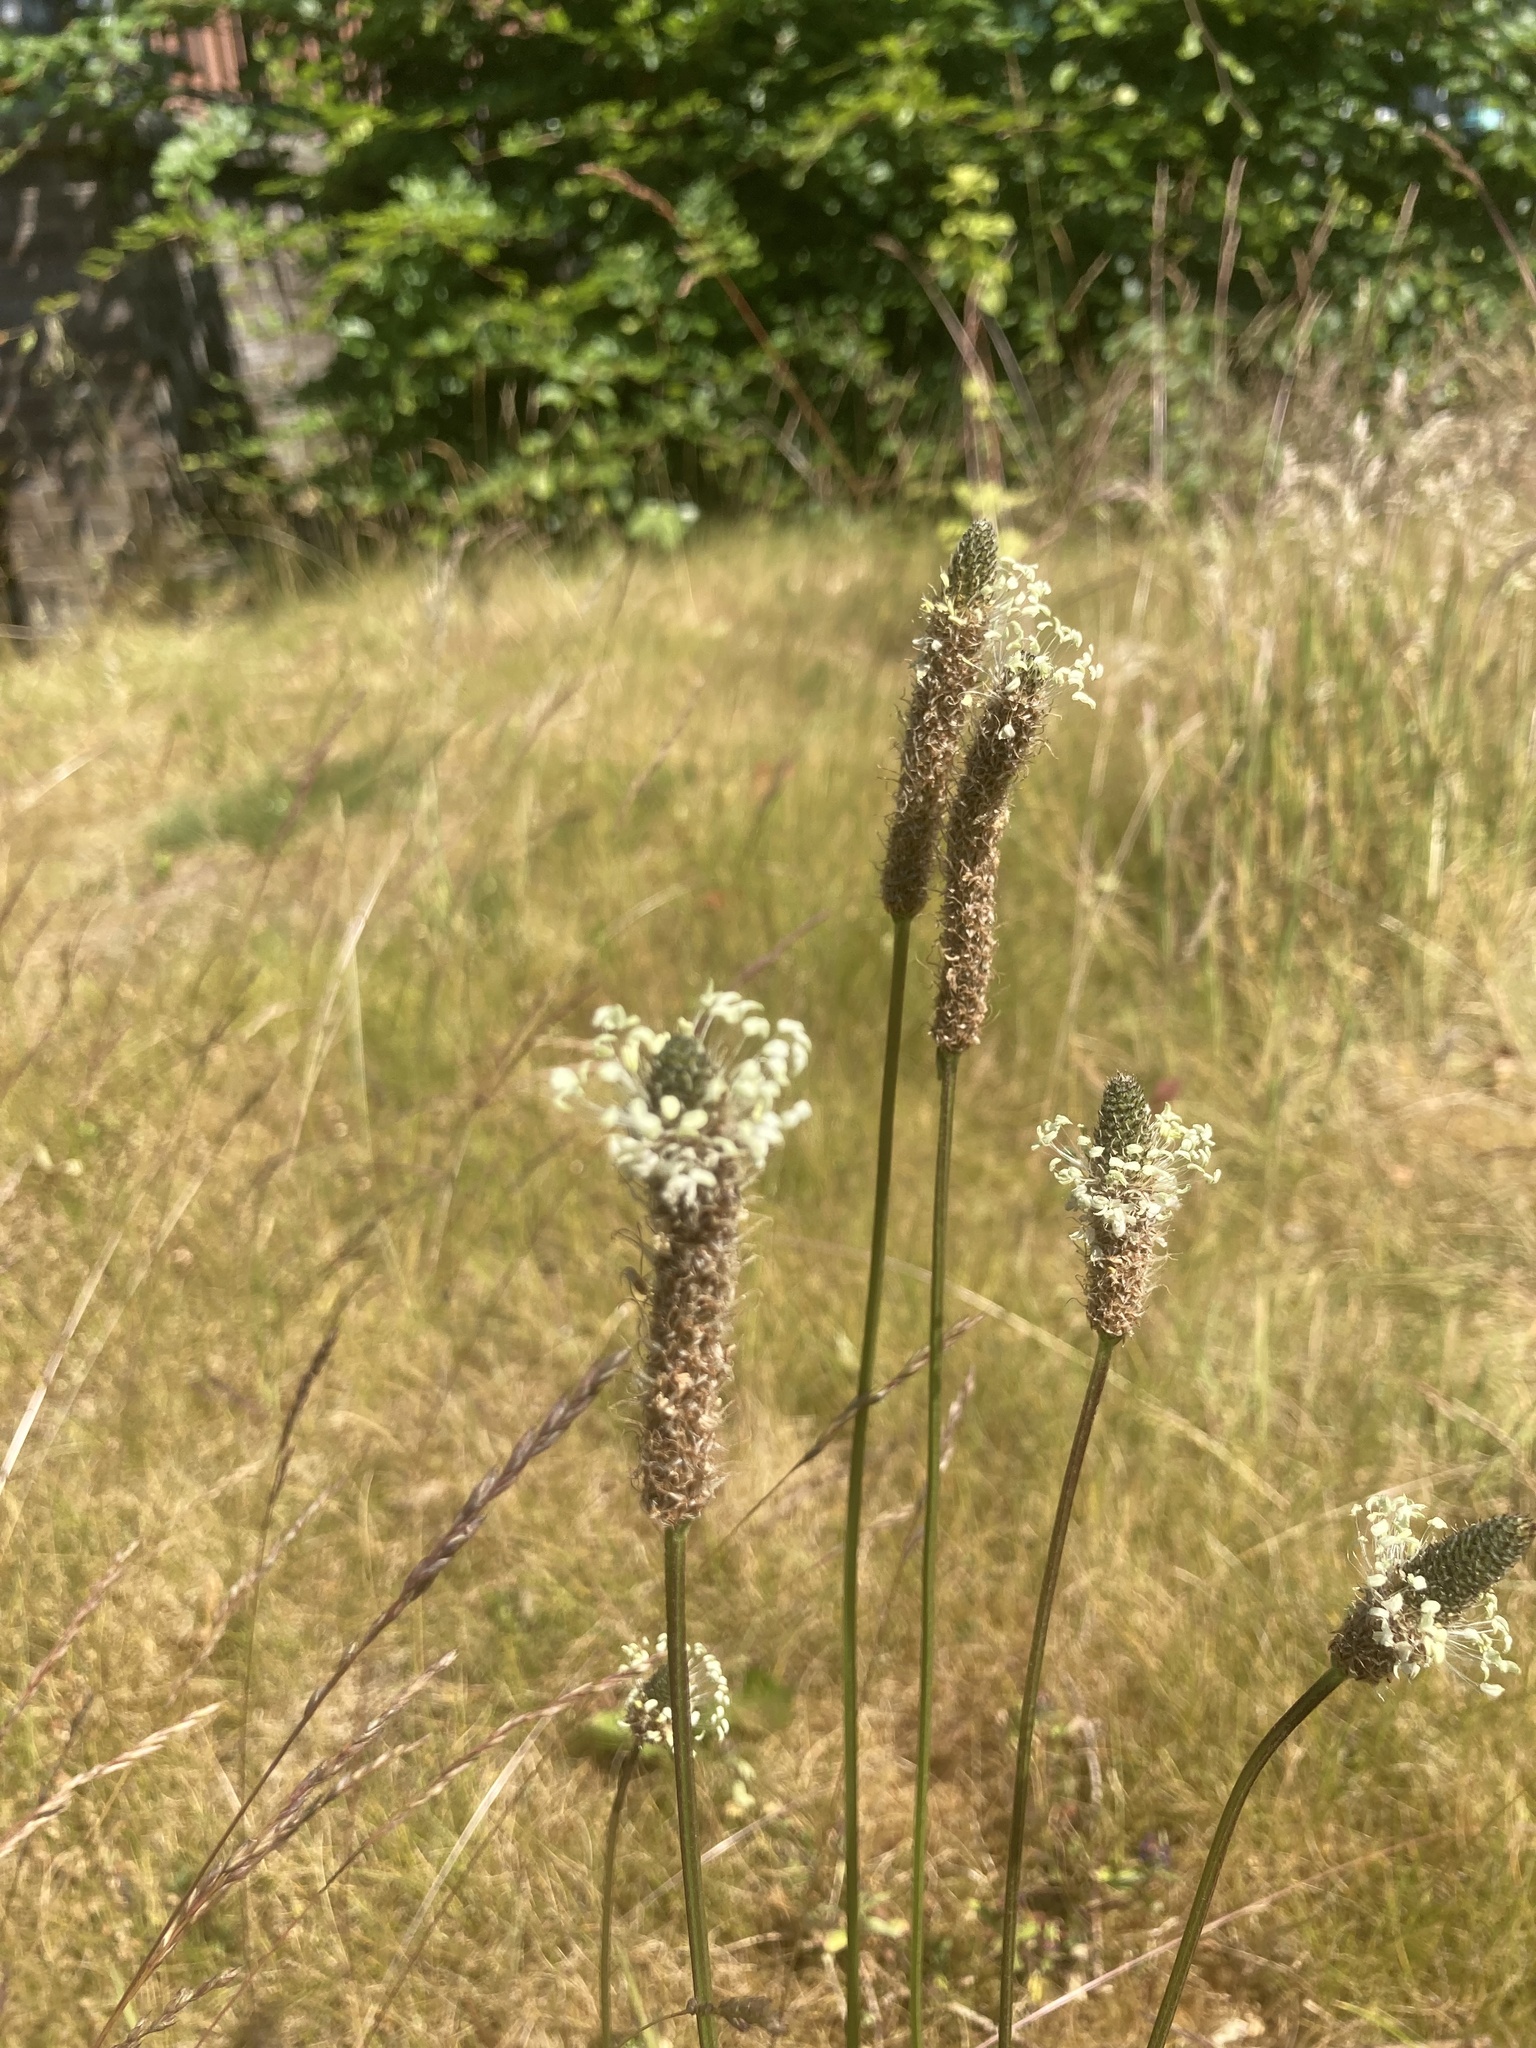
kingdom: Plantae
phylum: Tracheophyta
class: Magnoliopsida
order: Lamiales
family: Plantaginaceae
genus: Plantago
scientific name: Plantago lanceolata
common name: Ribwort plantain
